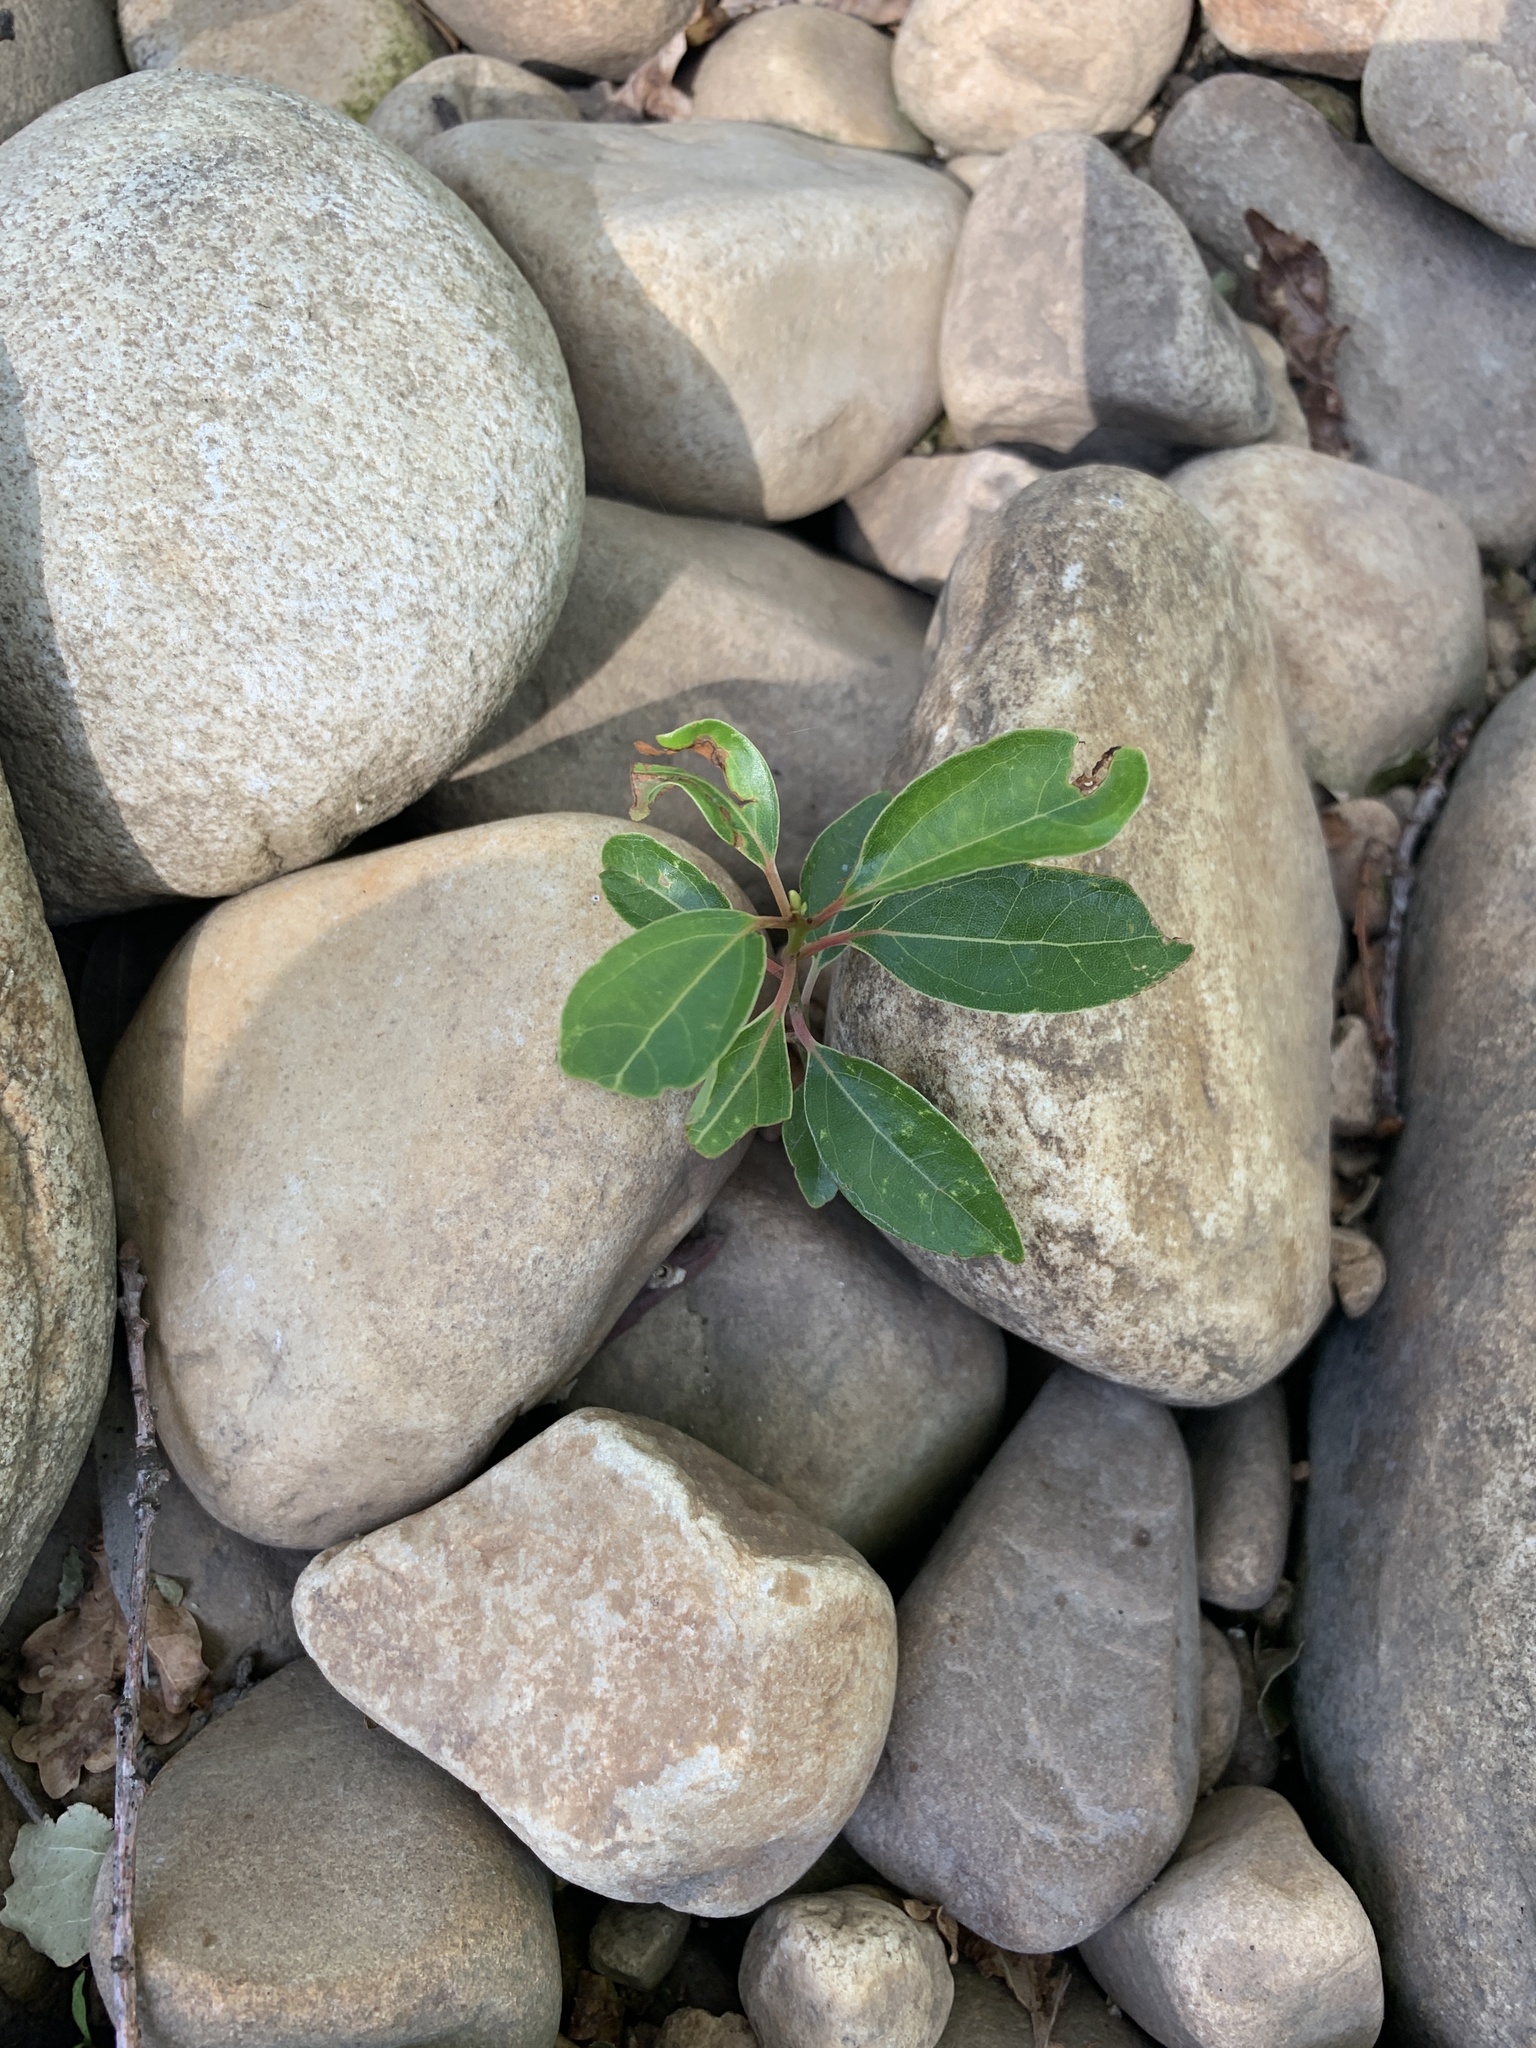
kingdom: Plantae
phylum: Tracheophyta
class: Magnoliopsida
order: Laurales
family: Lauraceae
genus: Cinnamomum
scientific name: Cinnamomum camphora
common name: Camphortree
